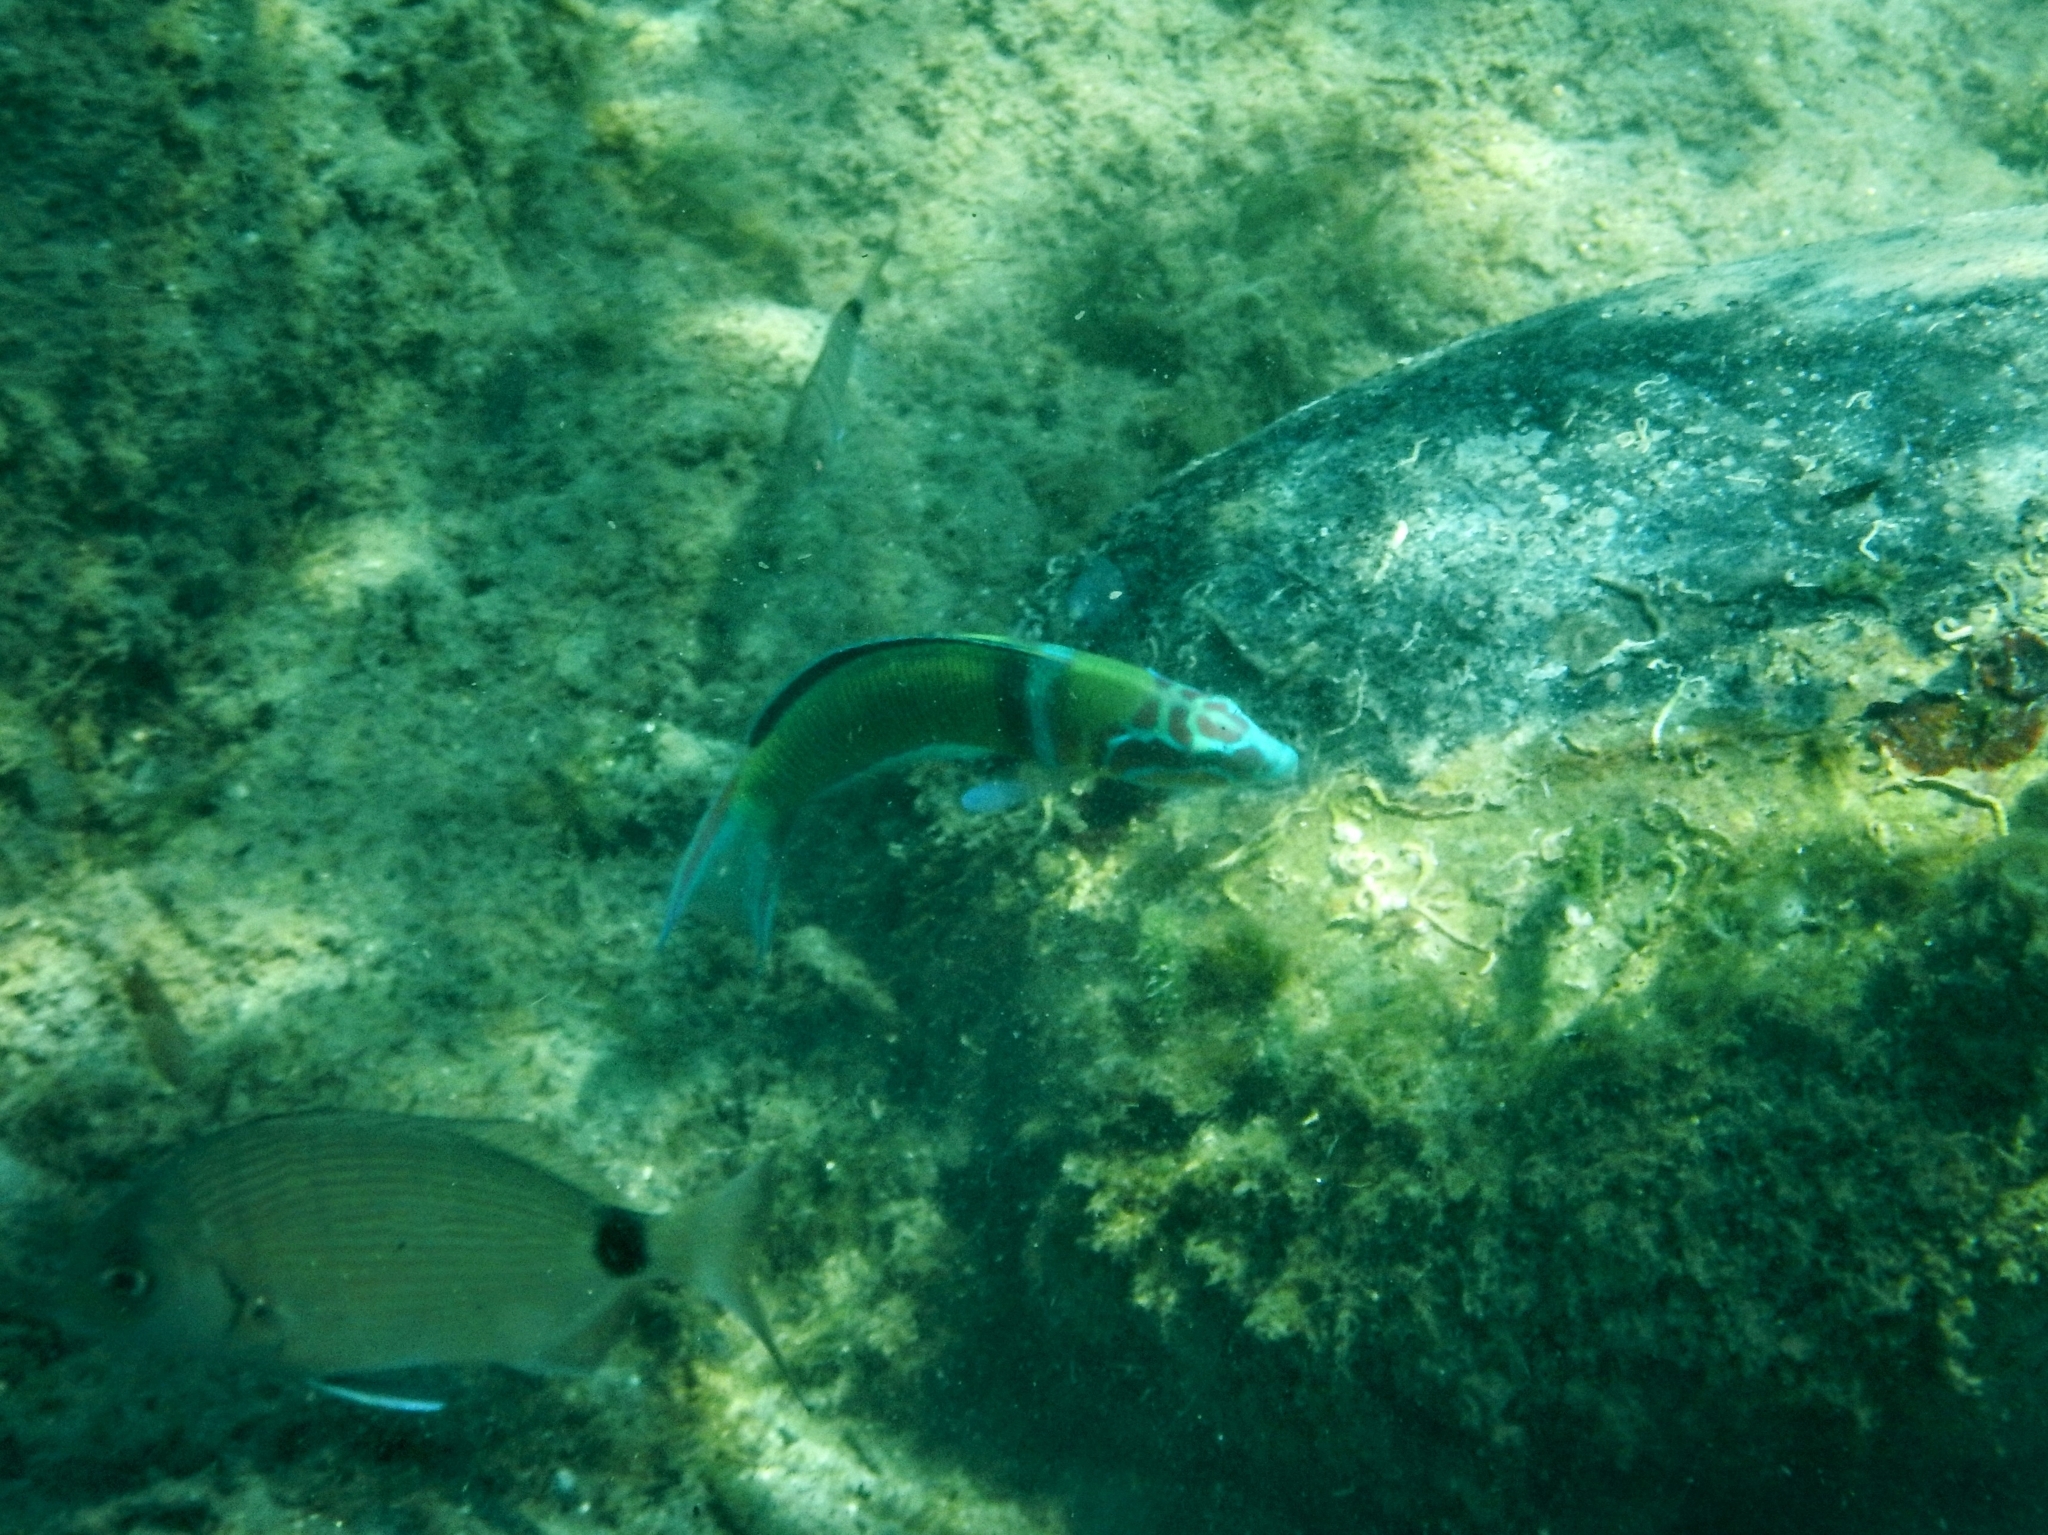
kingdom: Animalia
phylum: Chordata
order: Perciformes
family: Labridae
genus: Thalassoma
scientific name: Thalassoma pavo
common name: Ornate wrasse
